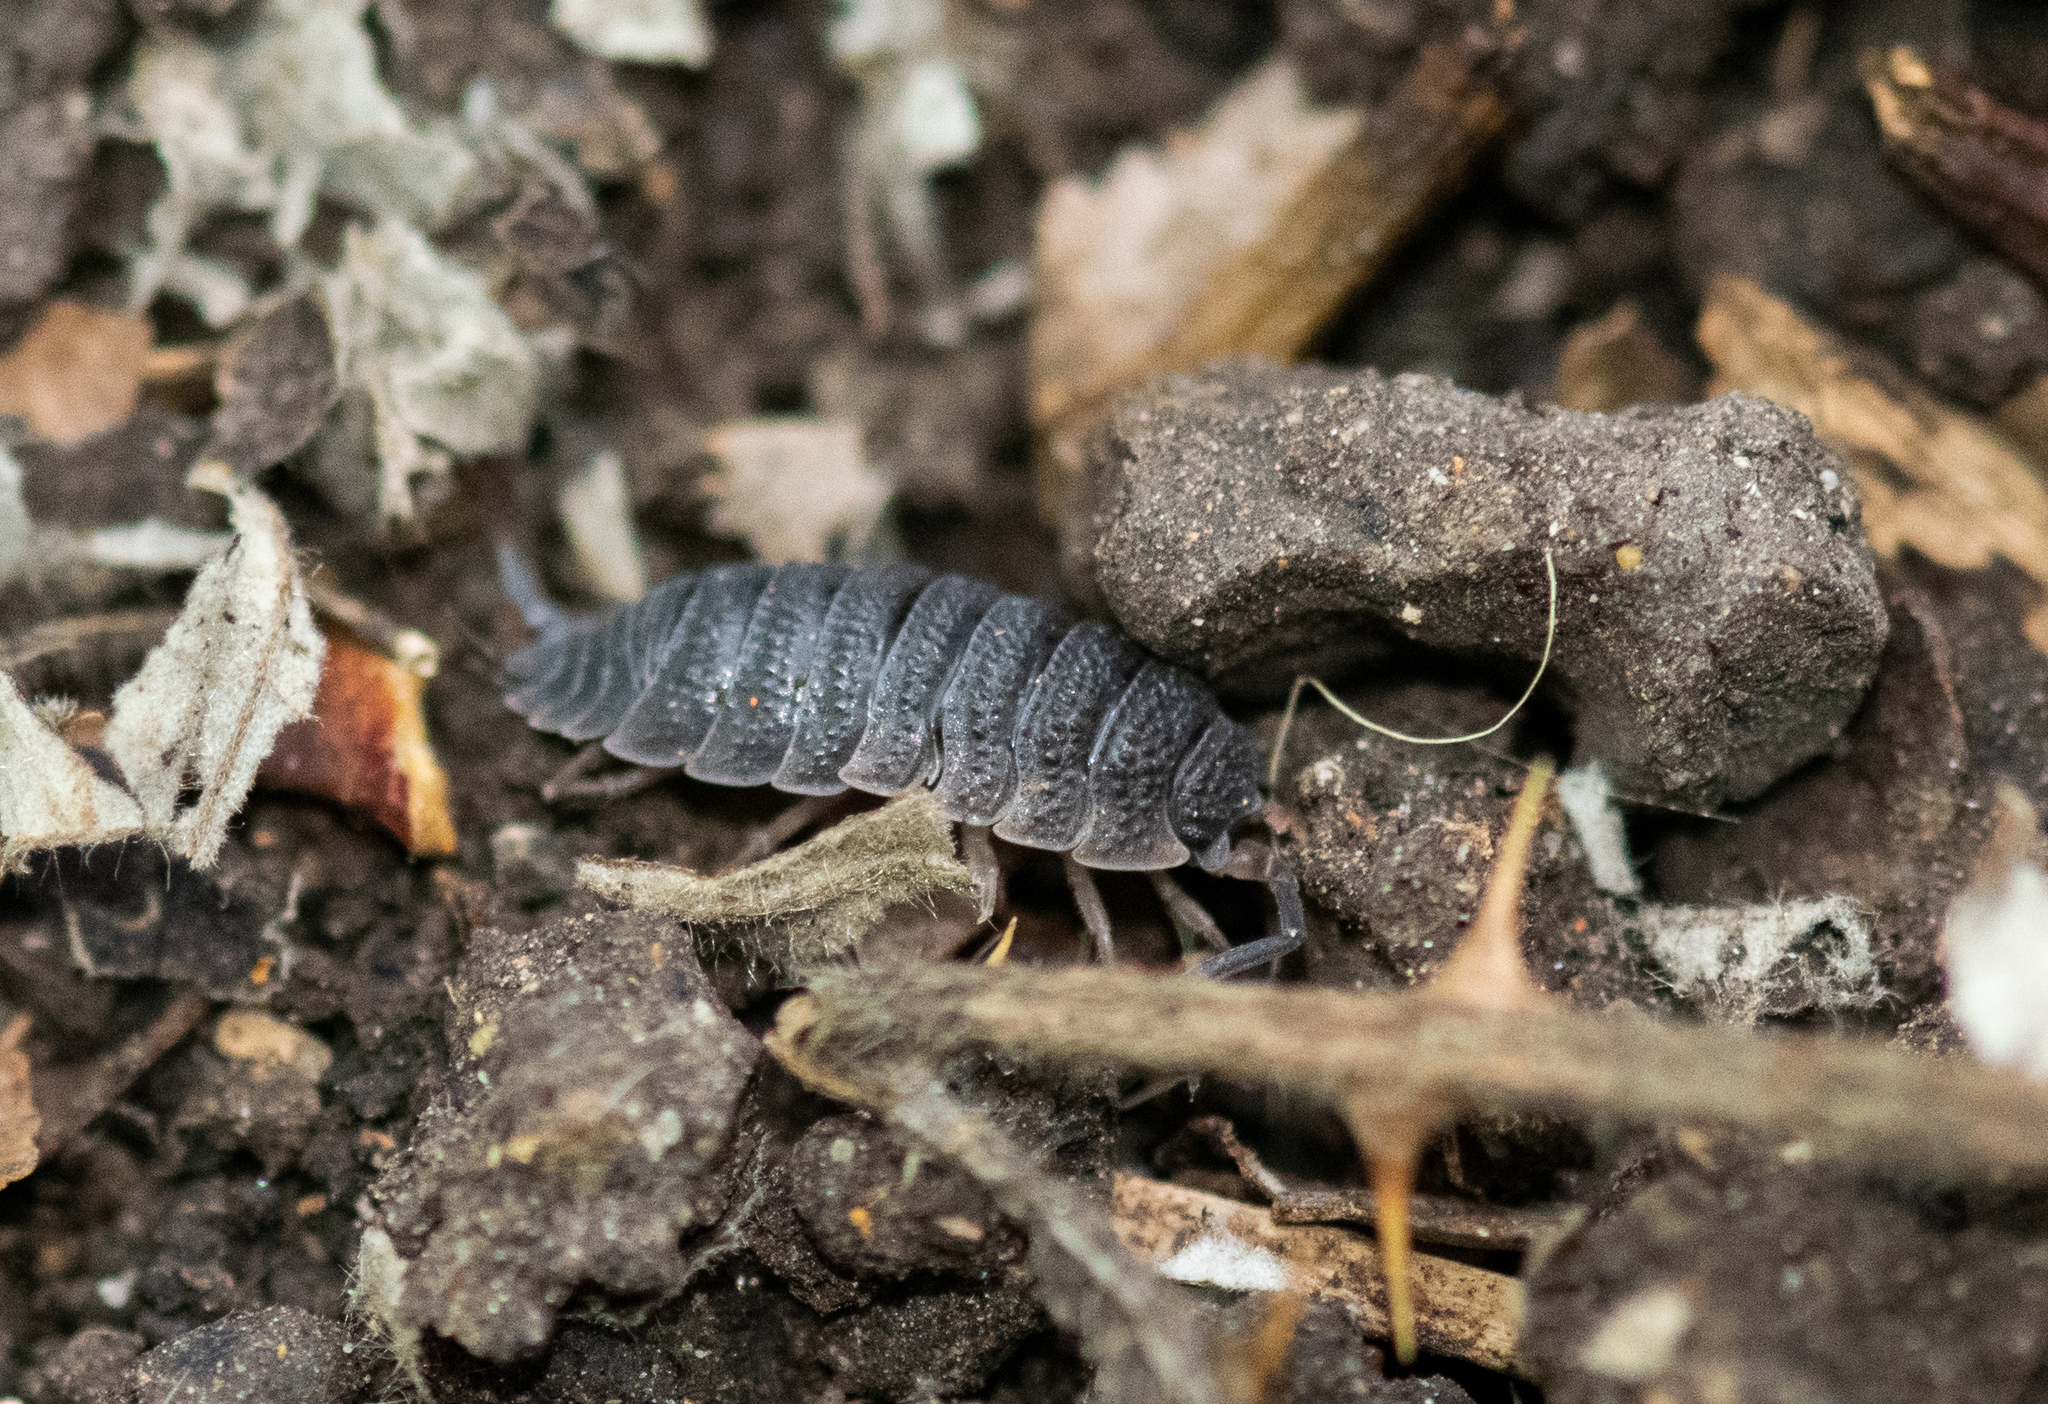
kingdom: Animalia
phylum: Arthropoda
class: Malacostraca
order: Isopoda
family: Porcellionidae
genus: Porcellio
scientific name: Porcellio scaber
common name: Common rough woodlouse
